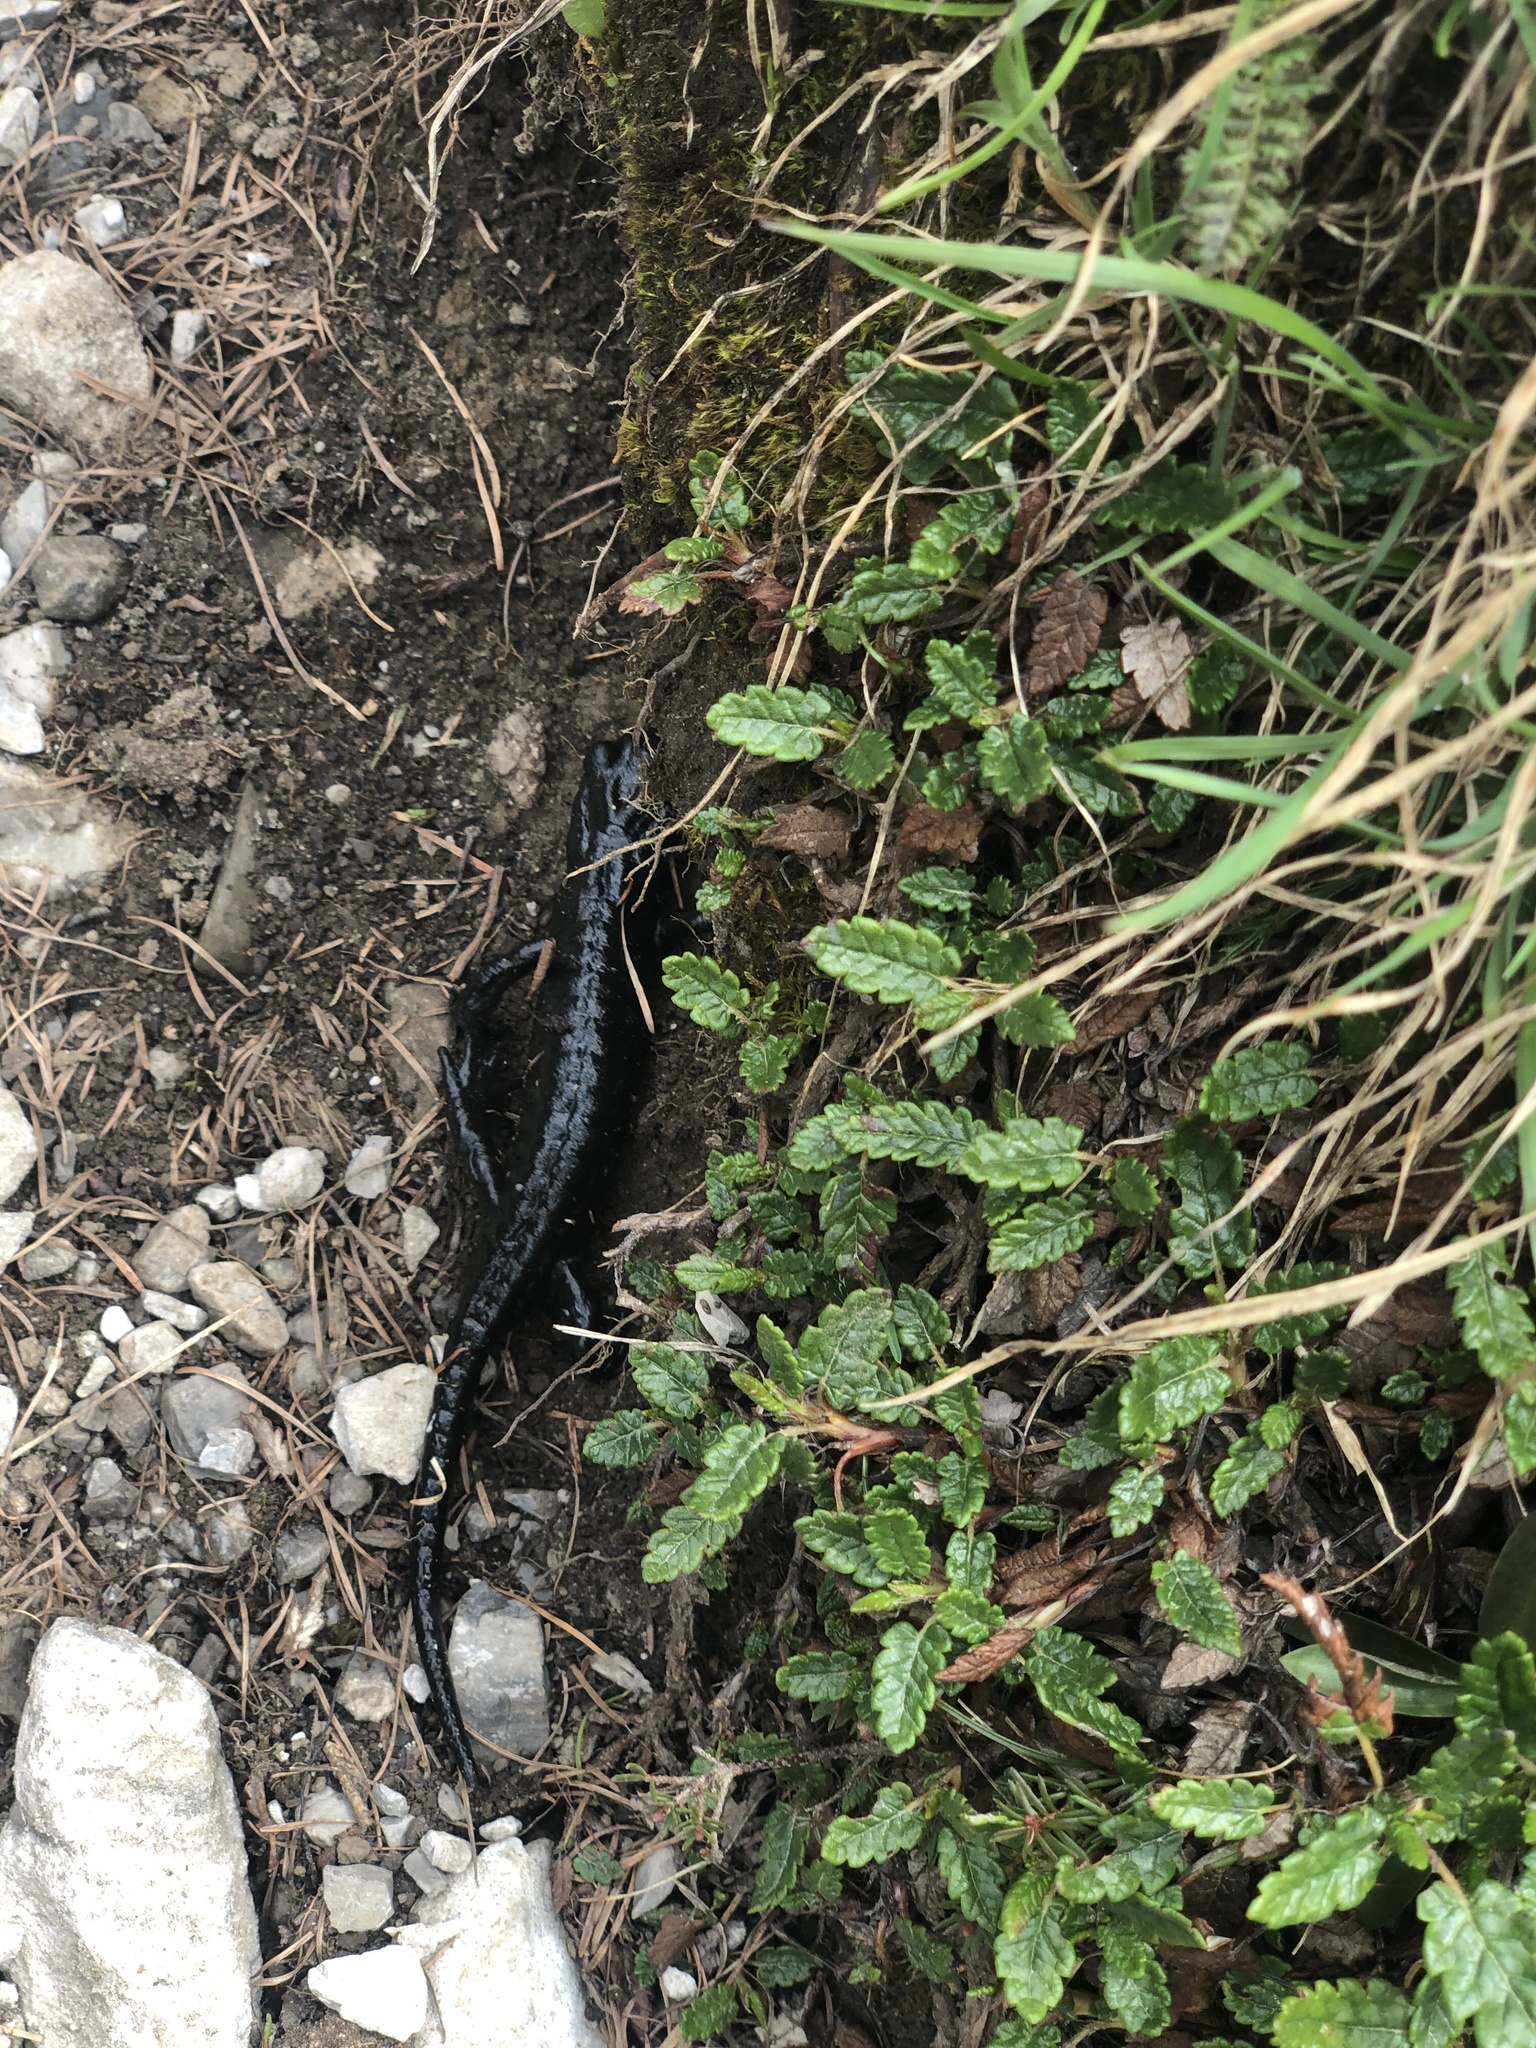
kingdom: Animalia
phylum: Chordata
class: Amphibia
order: Caudata
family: Salamandridae
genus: Salamandra
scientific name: Salamandra atra
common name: Alpine salamander
